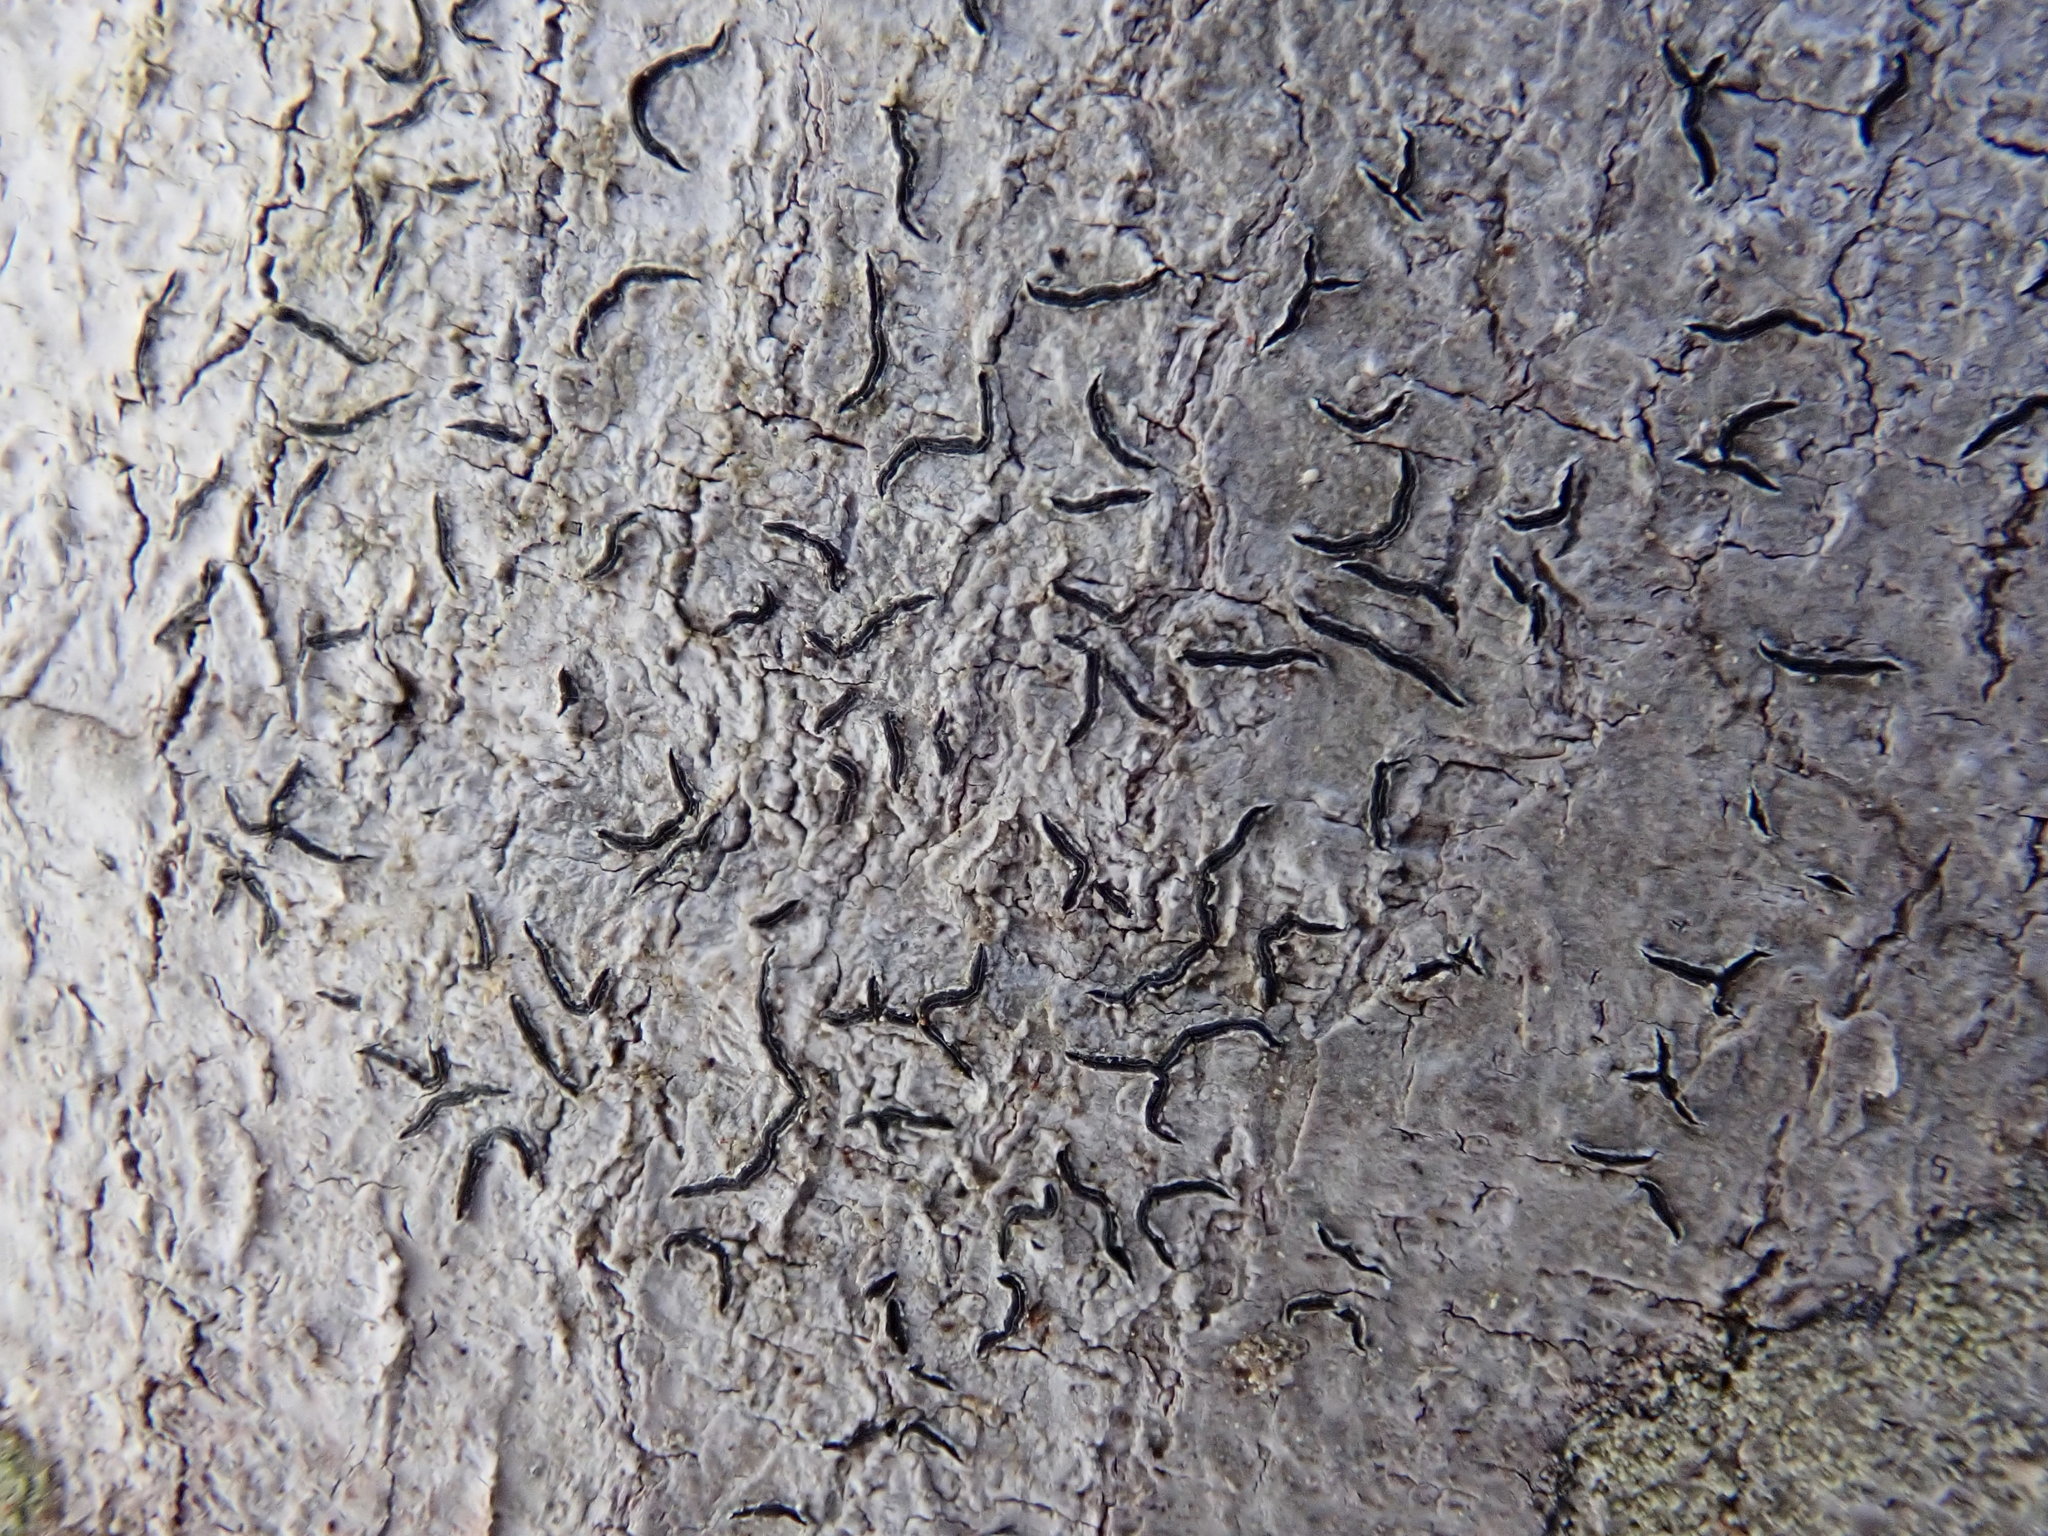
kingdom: Fungi
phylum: Ascomycota
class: Lecanoromycetes
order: Ostropales
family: Graphidaceae
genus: Graphis
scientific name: Graphis scripta
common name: Script lichen
